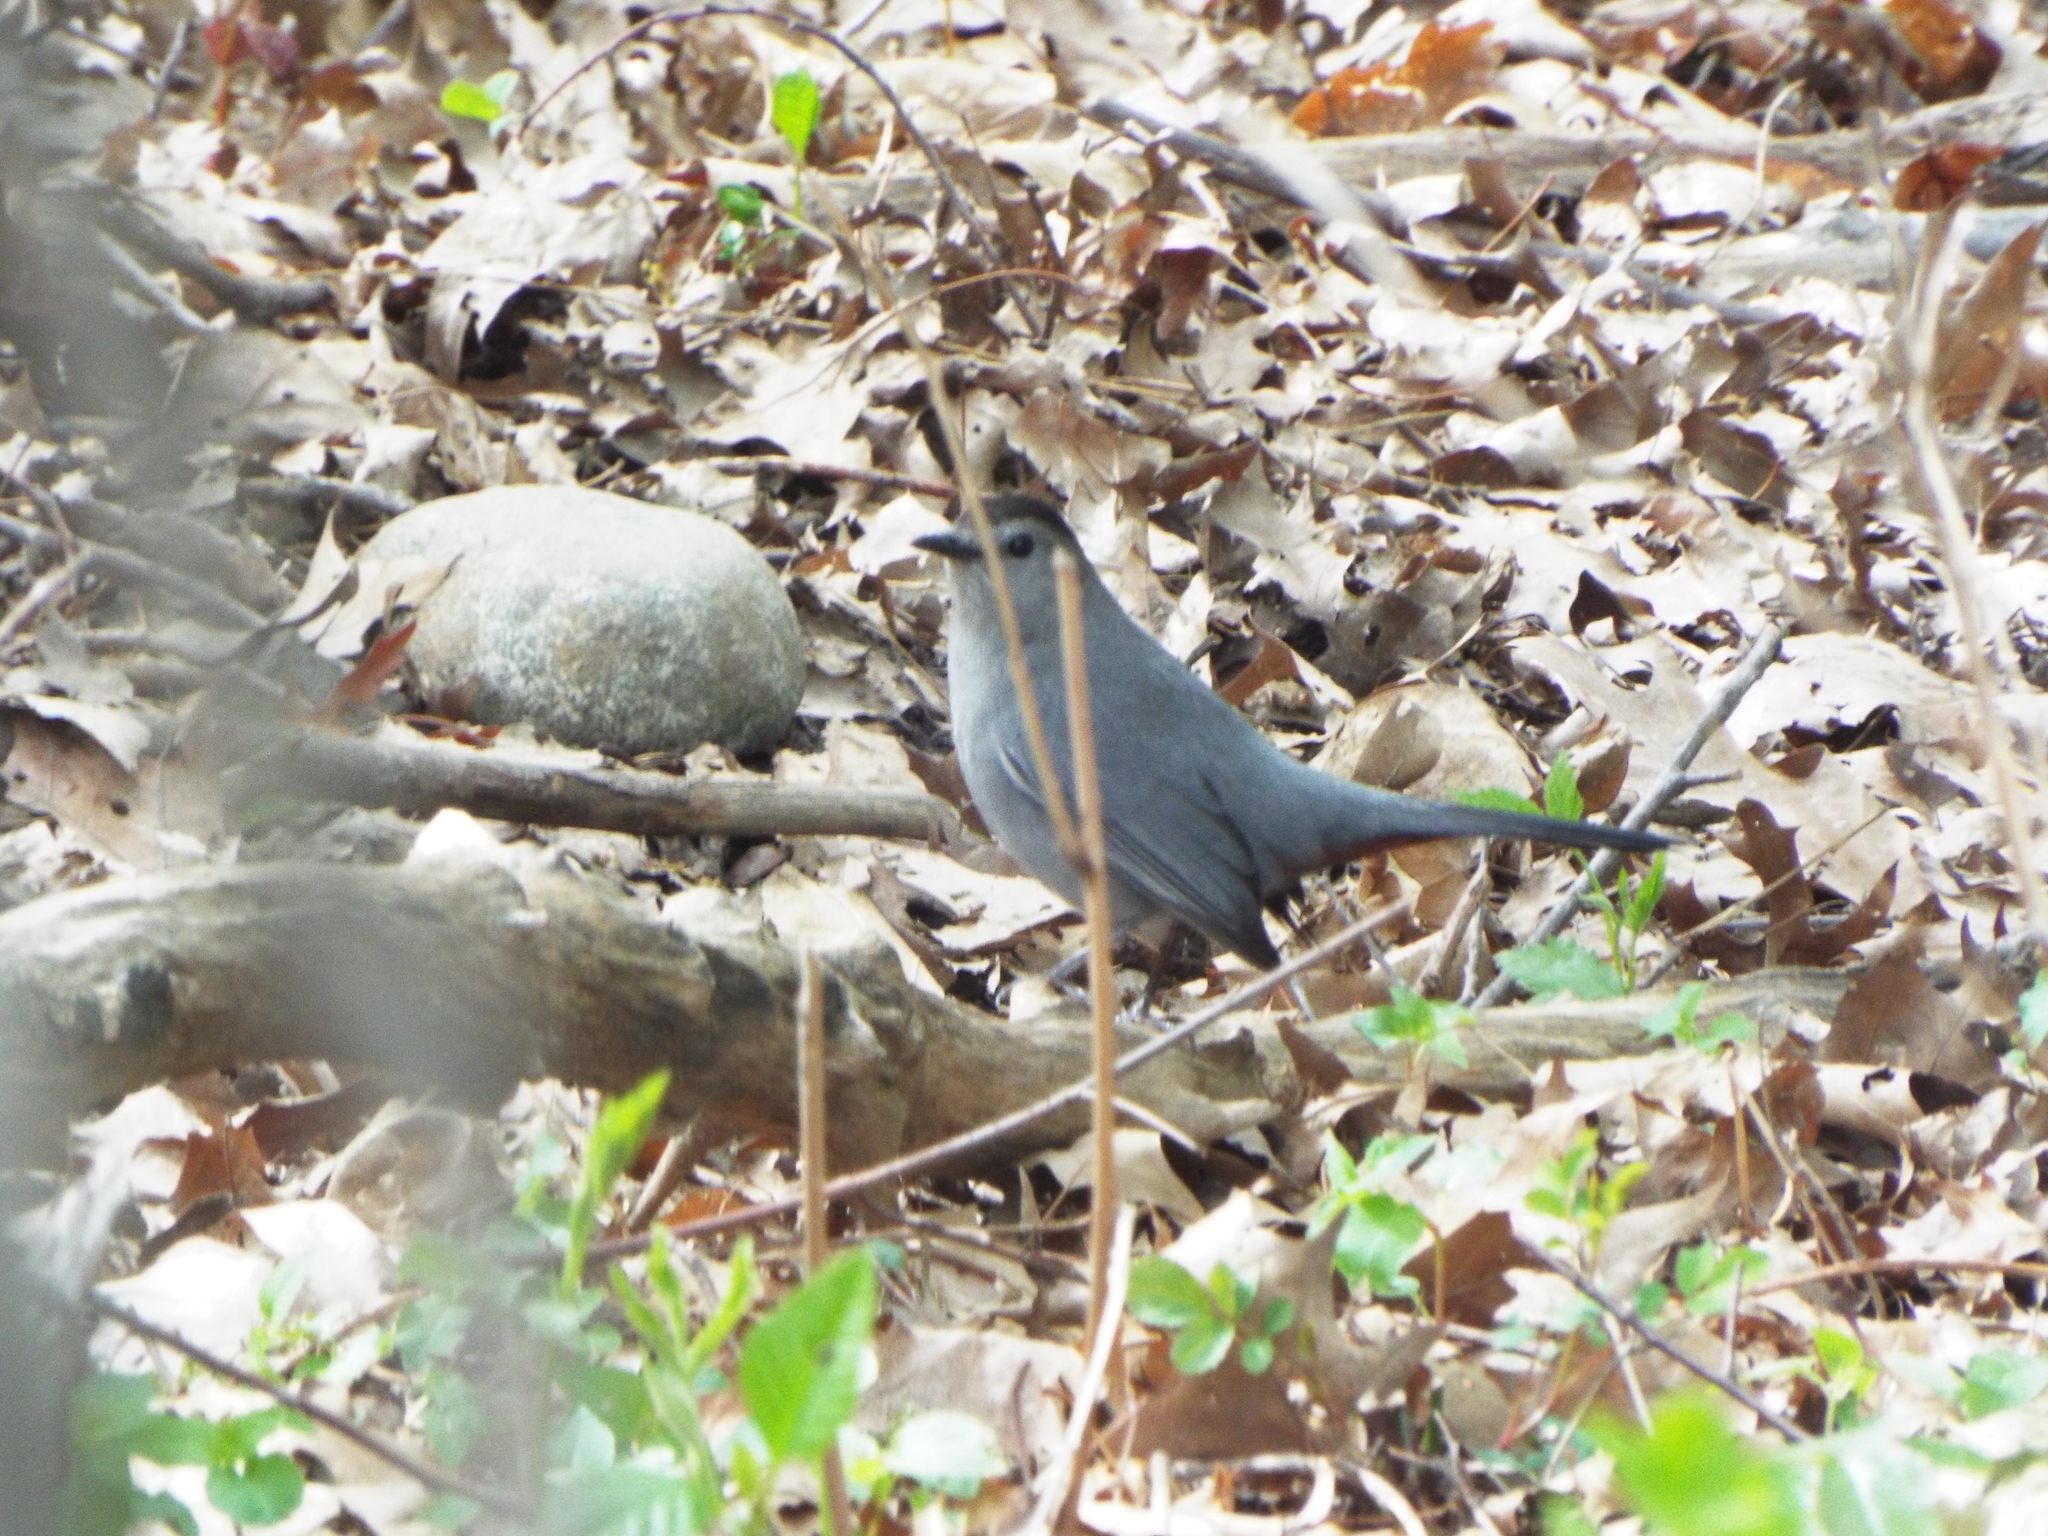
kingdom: Animalia
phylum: Chordata
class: Aves
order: Passeriformes
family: Mimidae
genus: Dumetella
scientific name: Dumetella carolinensis
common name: Gray catbird
